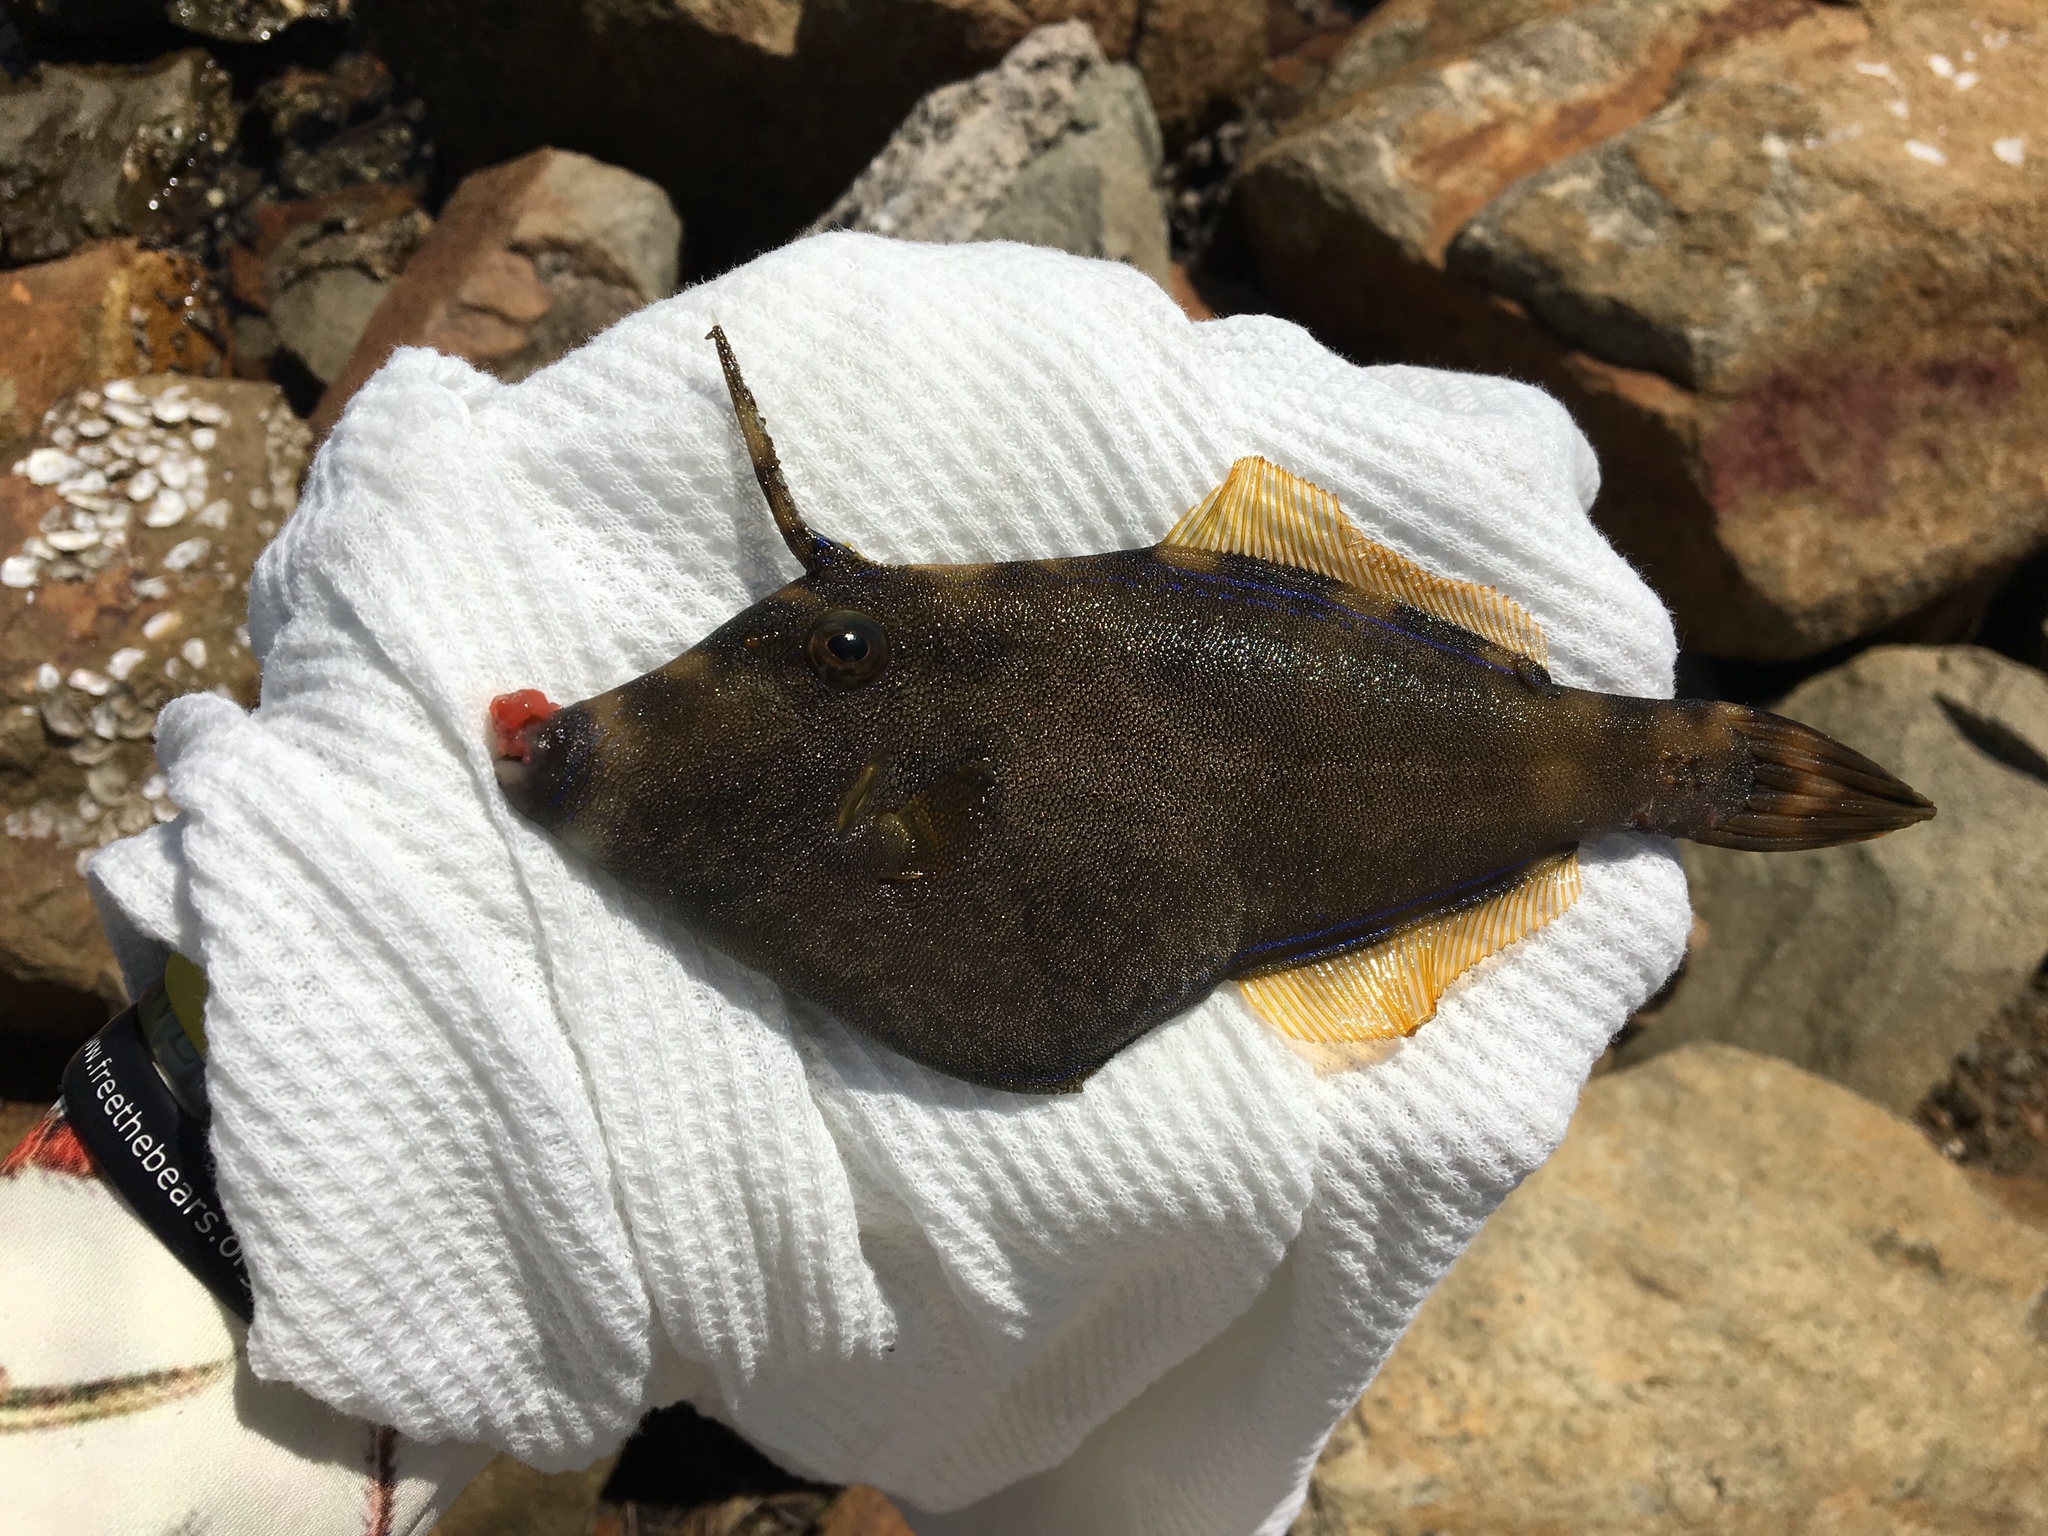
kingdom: Animalia
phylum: Chordata
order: Tetraodontiformes
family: Monacanthidae
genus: Meuschenia
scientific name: Meuschenia trachylepis
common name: Yellowfin leatherjacket
